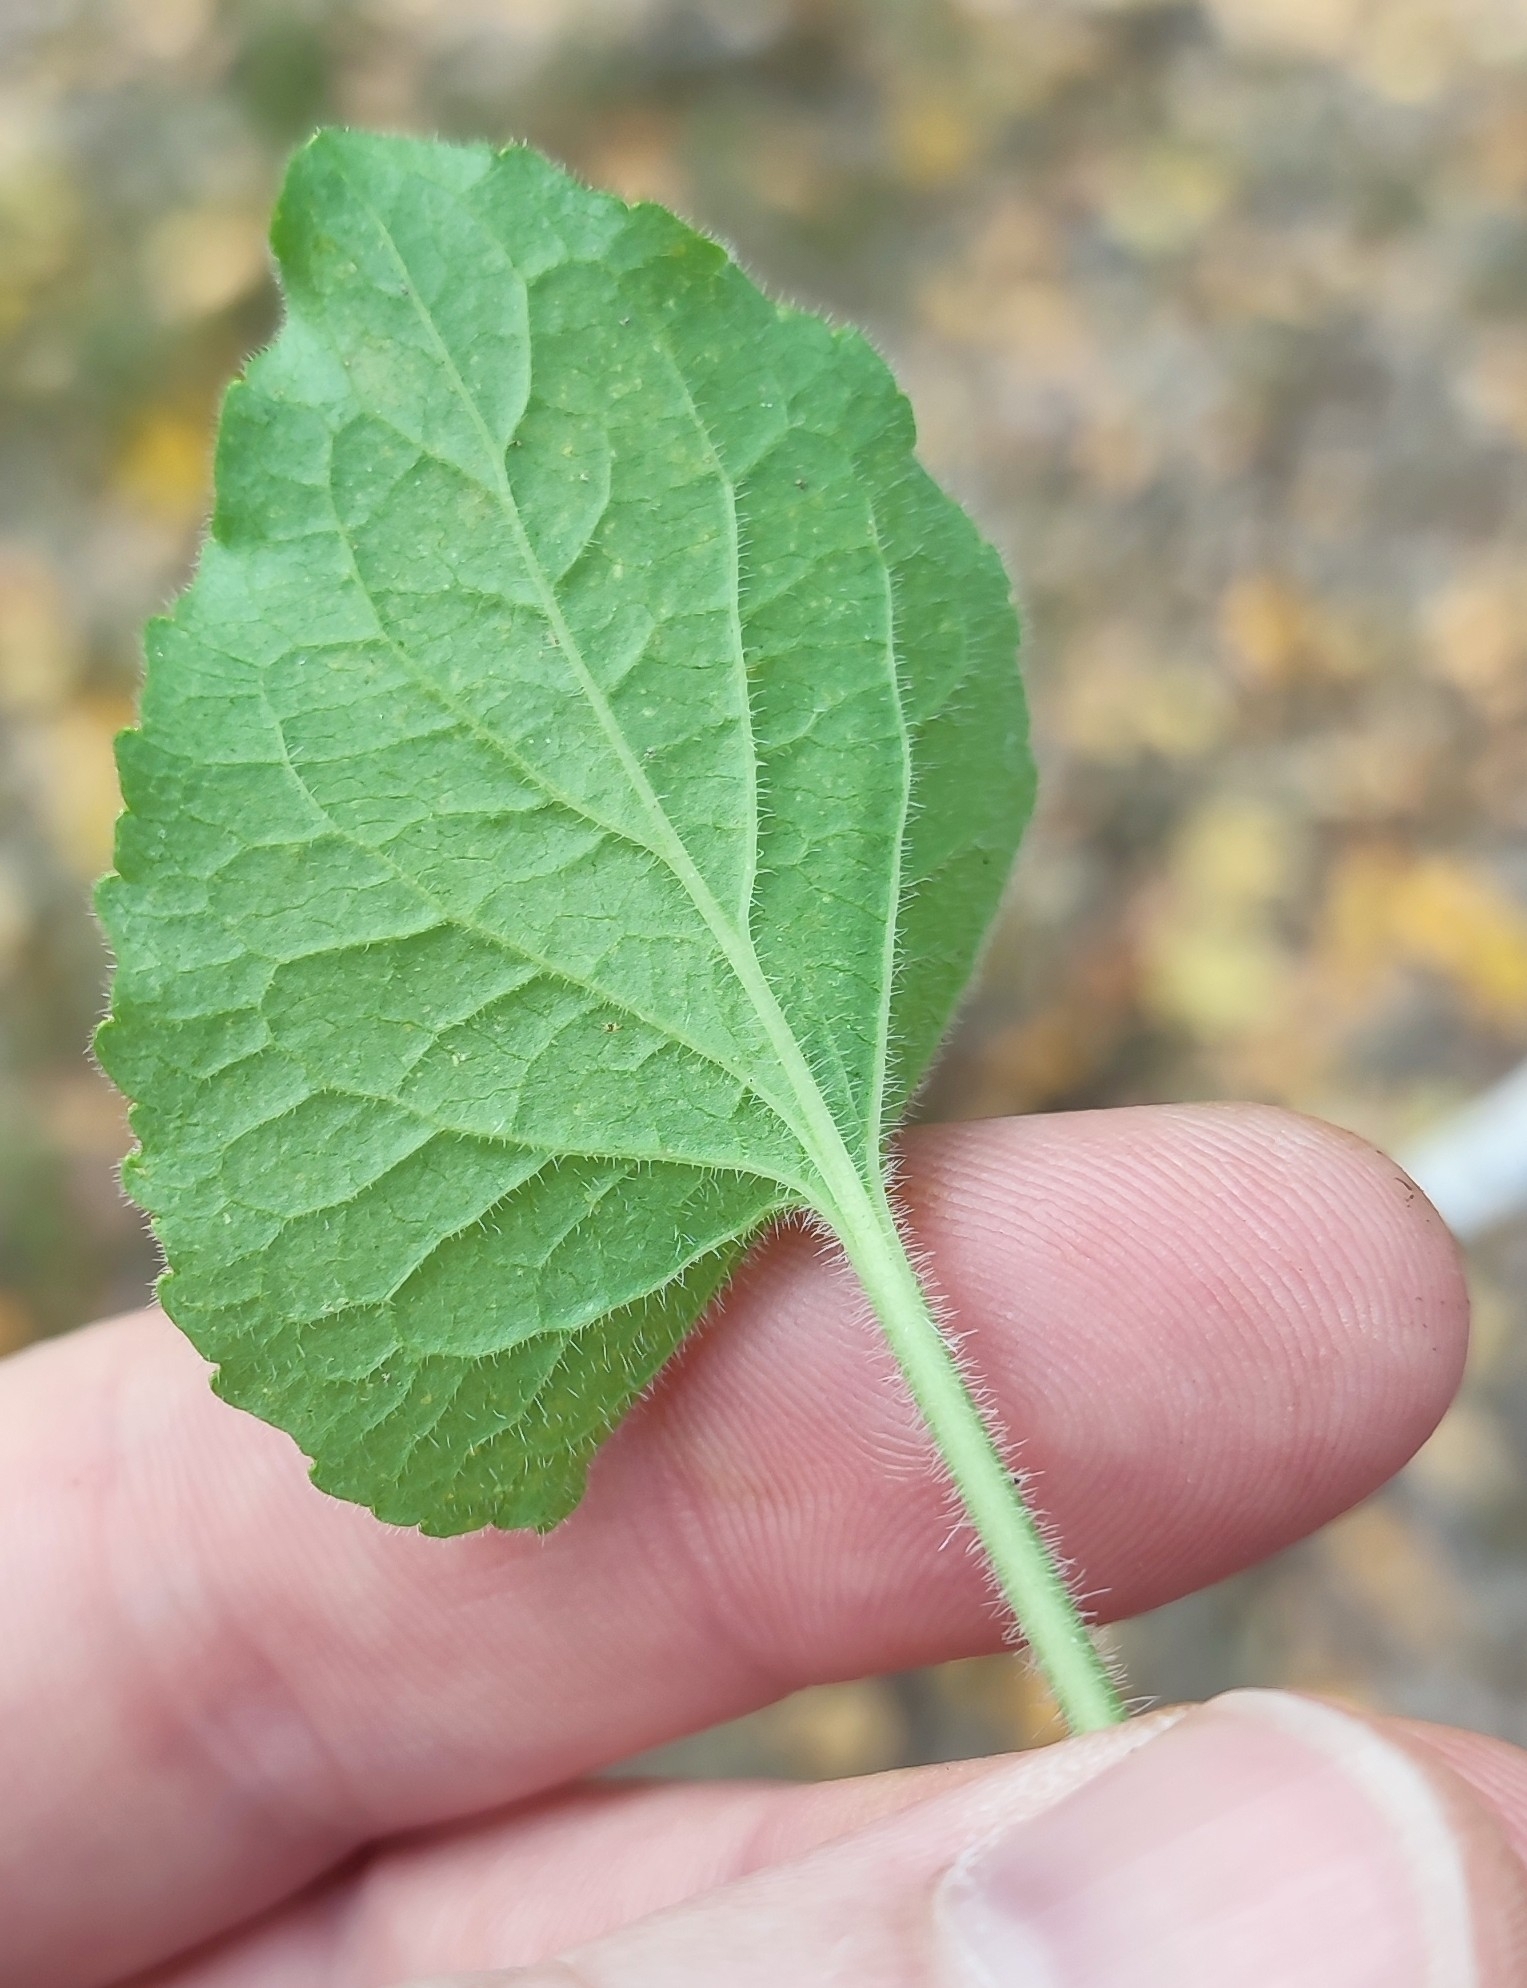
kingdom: Plantae
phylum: Tracheophyta
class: Magnoliopsida
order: Malpighiales
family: Violaceae
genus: Viola
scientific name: Viola hirta
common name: Hairy violet
